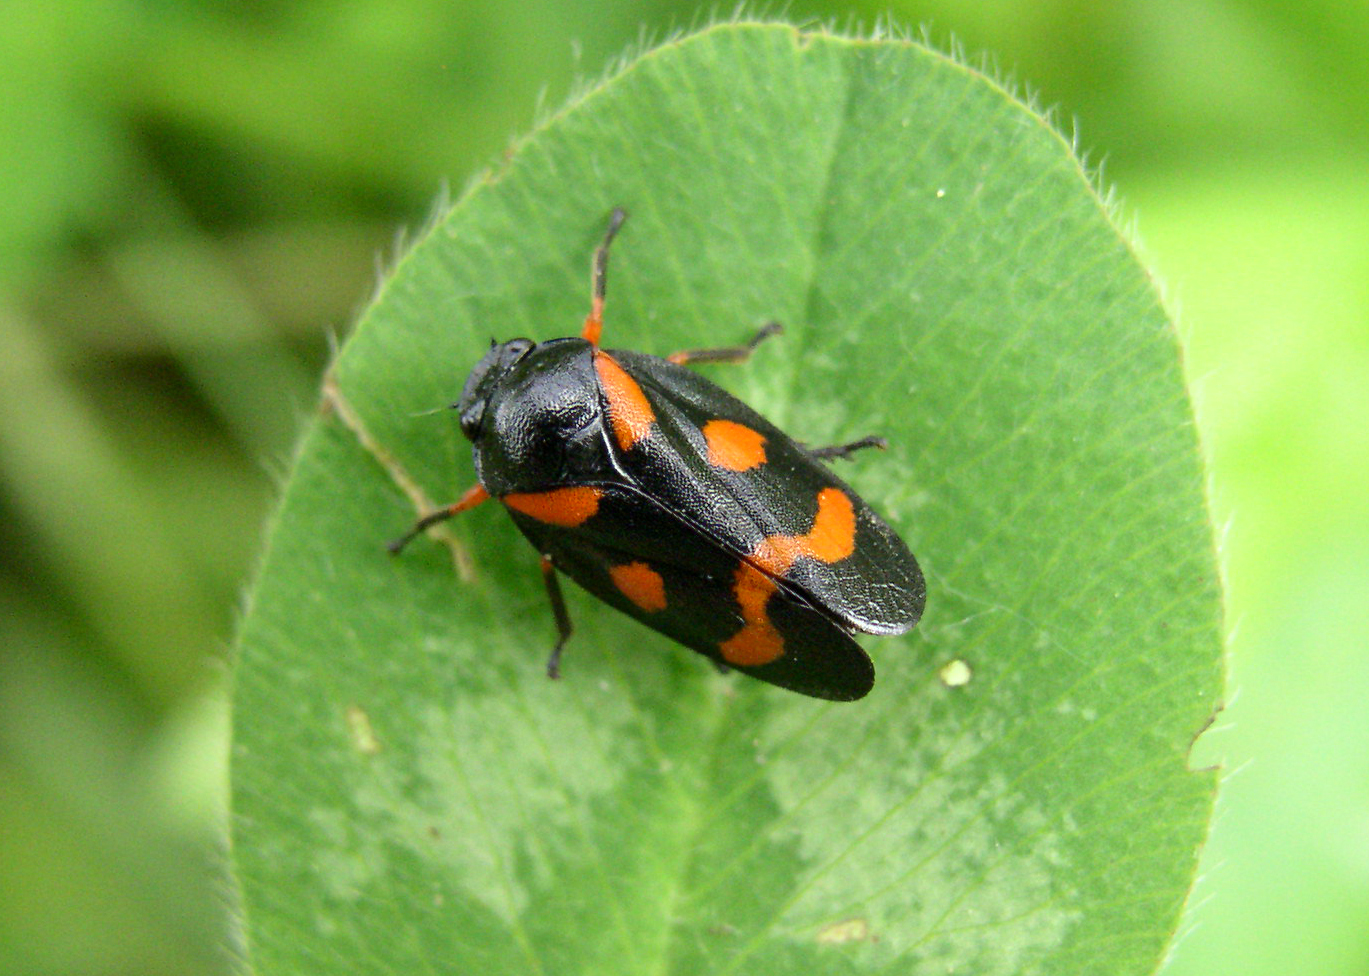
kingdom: Animalia
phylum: Arthropoda
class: Insecta
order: Hemiptera
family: Cercopidae
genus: Cercopis
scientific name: Cercopis intermedia
